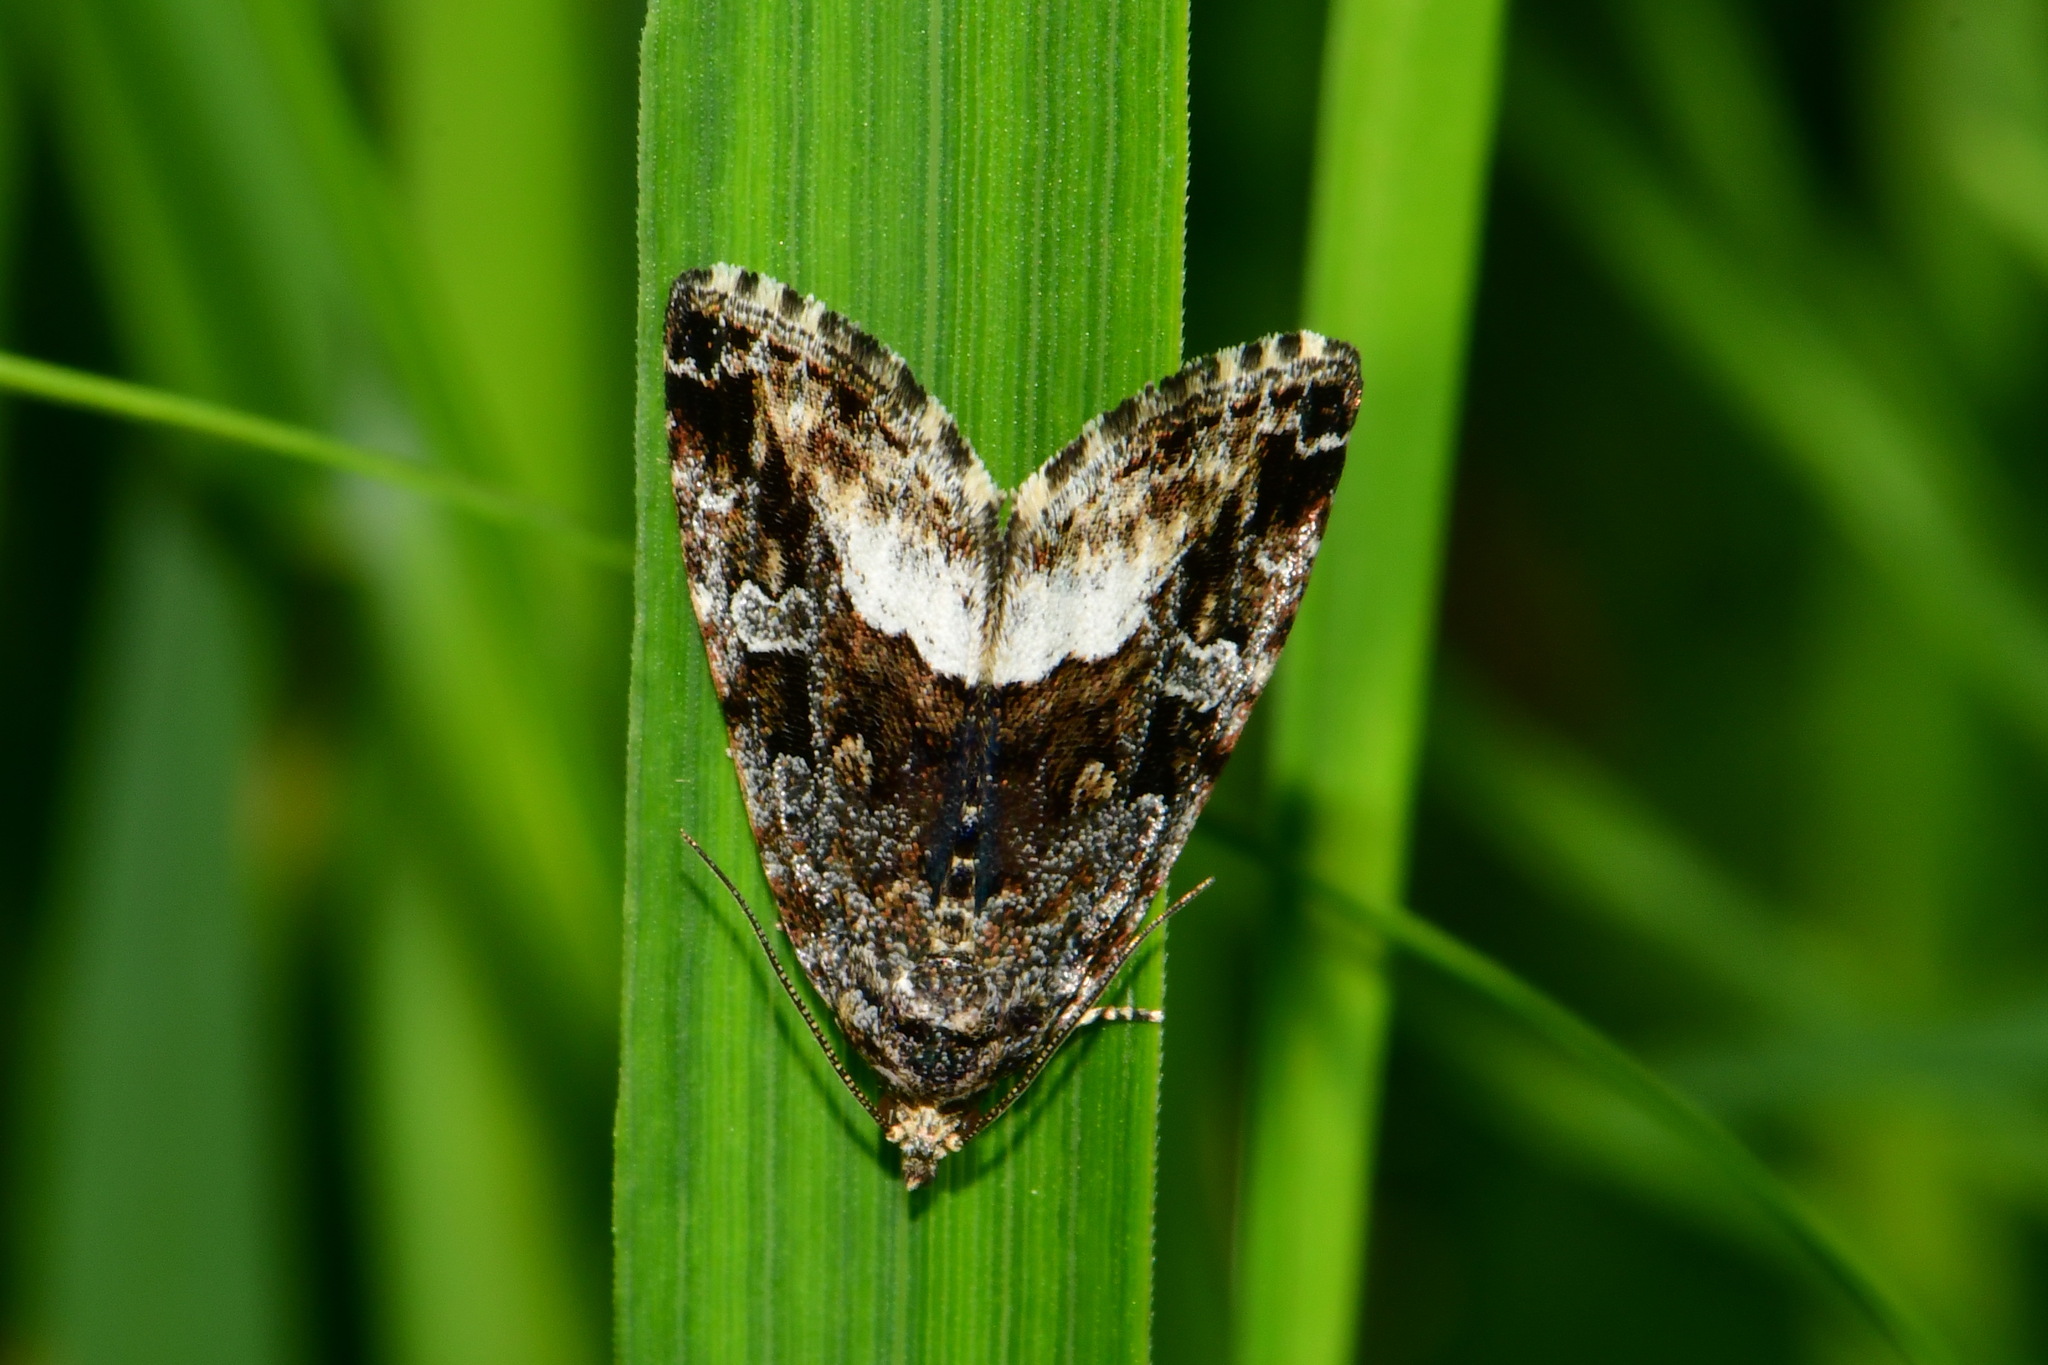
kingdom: Animalia
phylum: Arthropoda
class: Insecta
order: Lepidoptera
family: Noctuidae
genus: Deltote
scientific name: Deltote pygarga
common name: Marbled white spot
